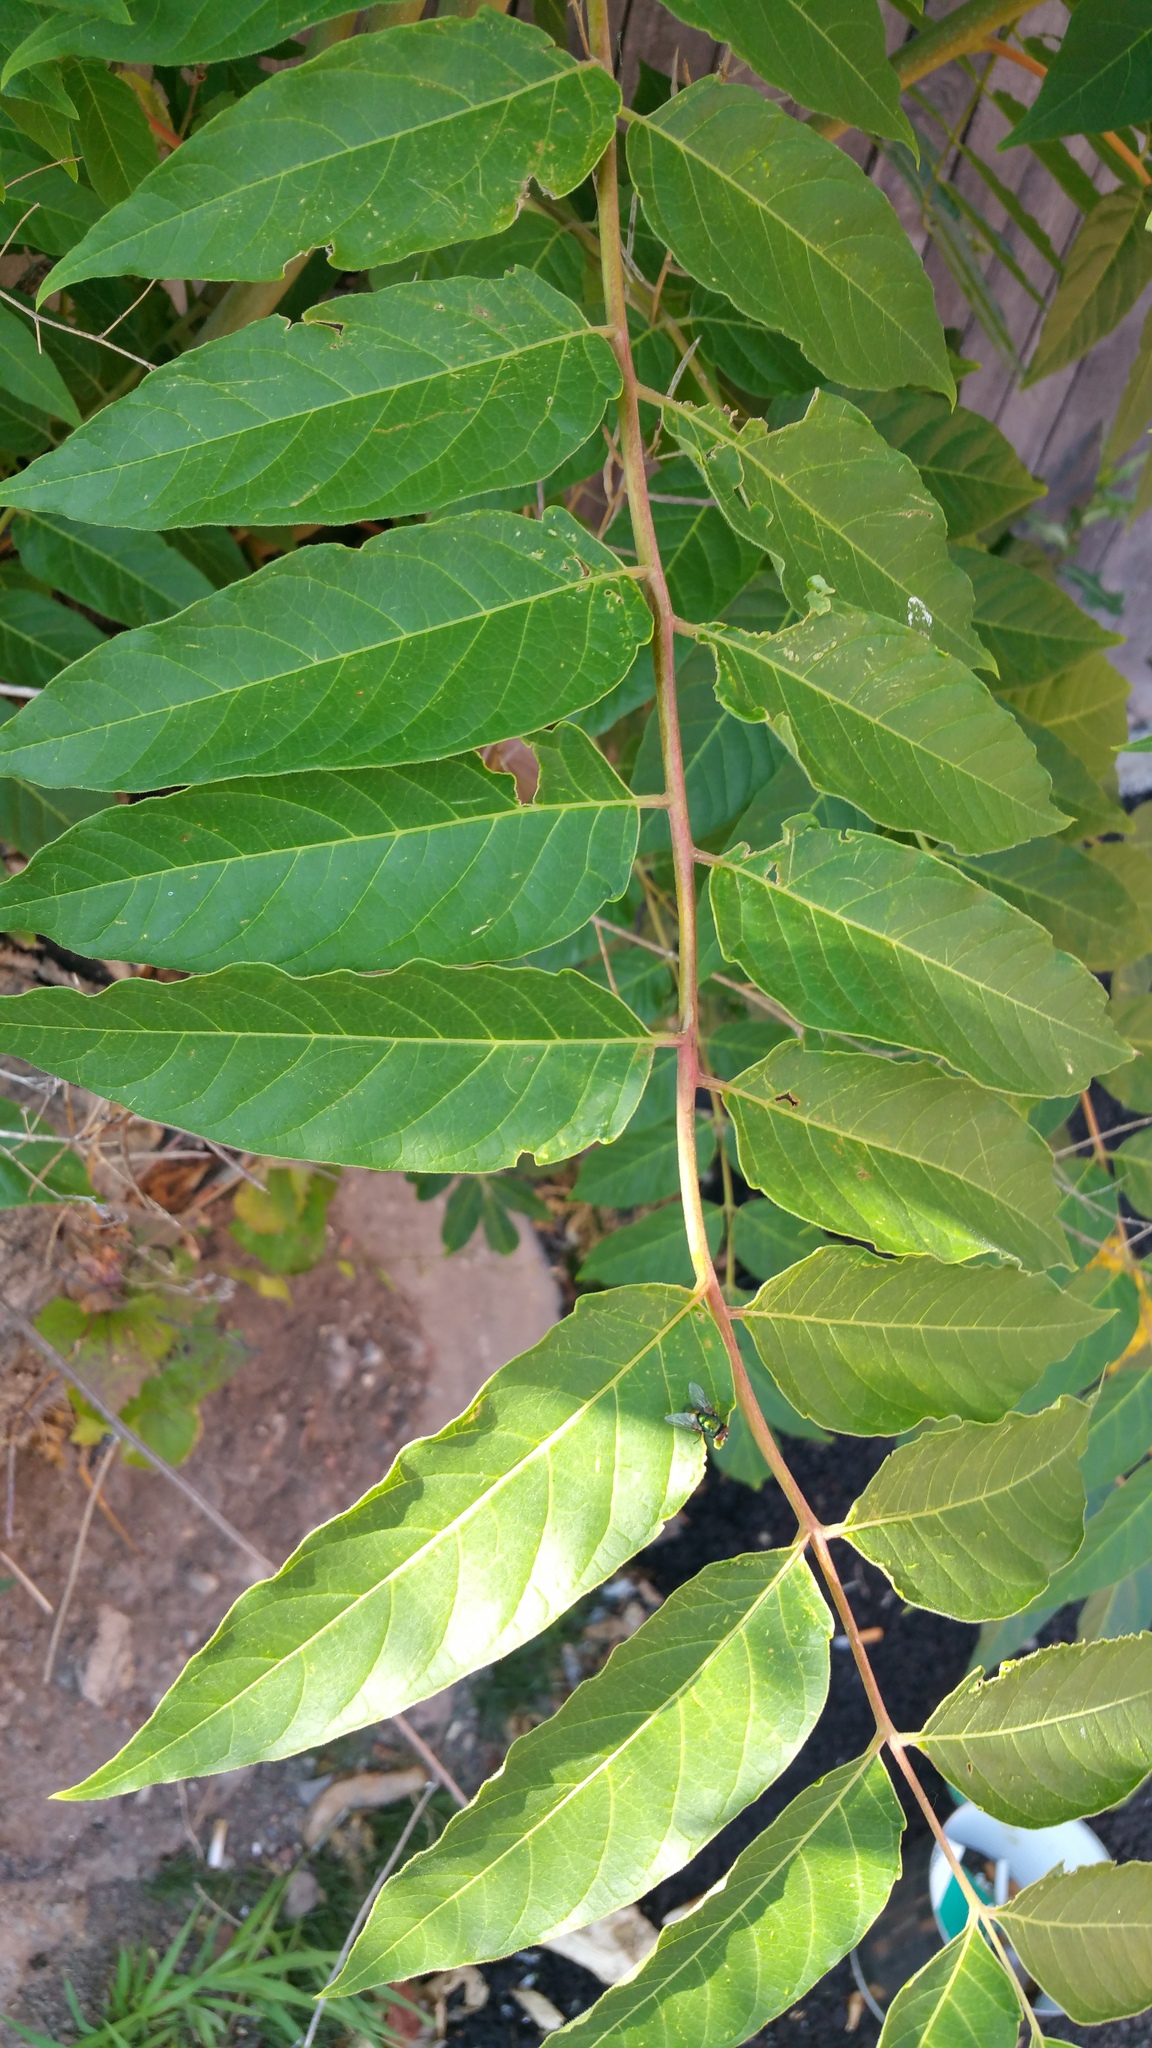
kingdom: Plantae
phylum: Tracheophyta
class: Magnoliopsida
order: Sapindales
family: Simaroubaceae
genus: Ailanthus
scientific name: Ailanthus altissima
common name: Tree-of-heaven
